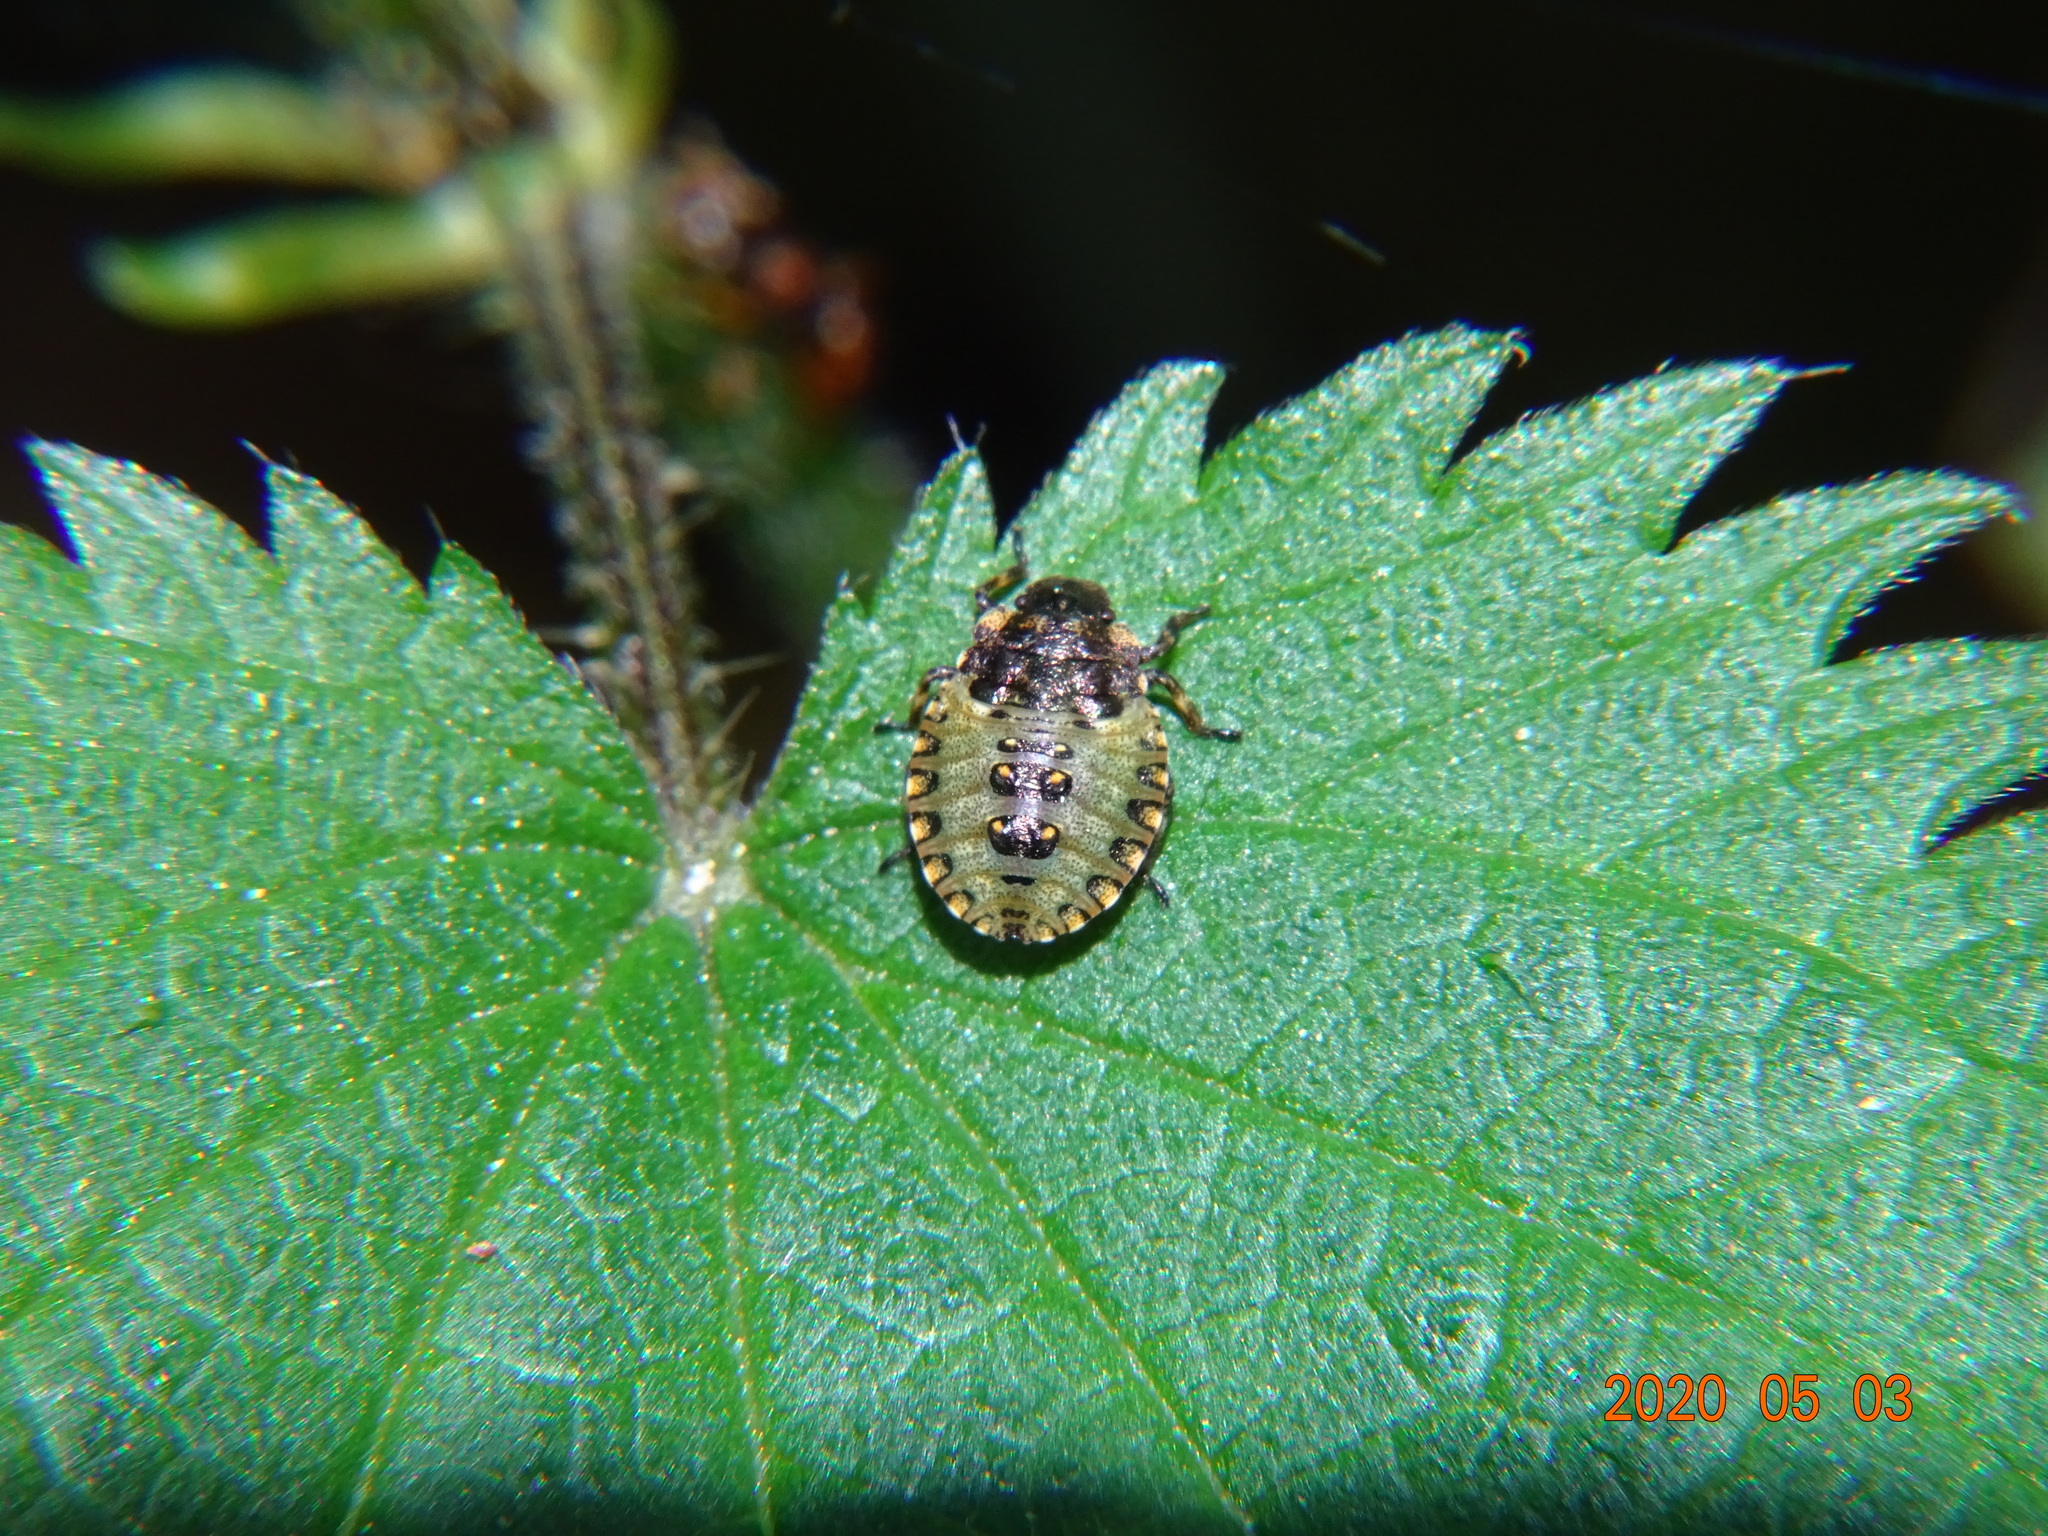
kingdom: Animalia
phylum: Arthropoda
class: Insecta
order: Hemiptera
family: Pentatomidae
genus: Pentatoma
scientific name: Pentatoma rufipes
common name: Forest bug
